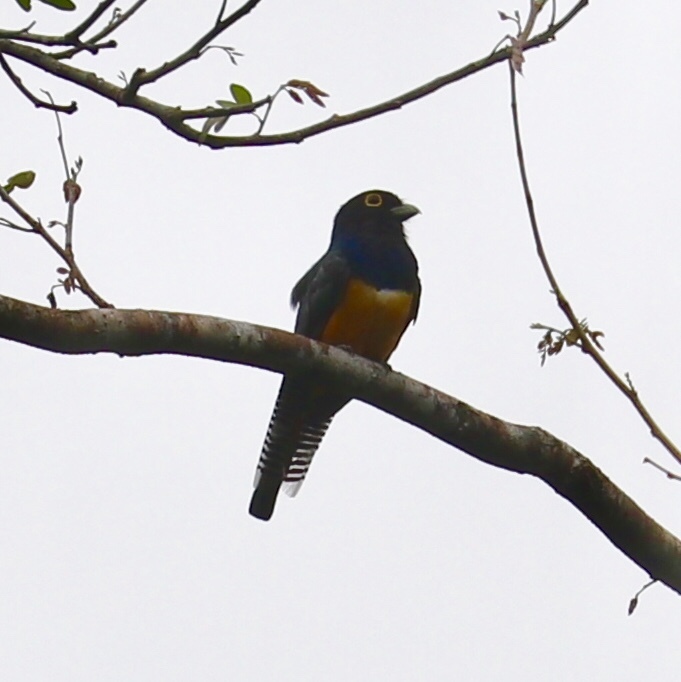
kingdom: Animalia
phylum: Chordata
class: Aves
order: Trogoniformes
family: Trogonidae
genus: Trogon
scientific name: Trogon caligatus
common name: Gartered trogon
